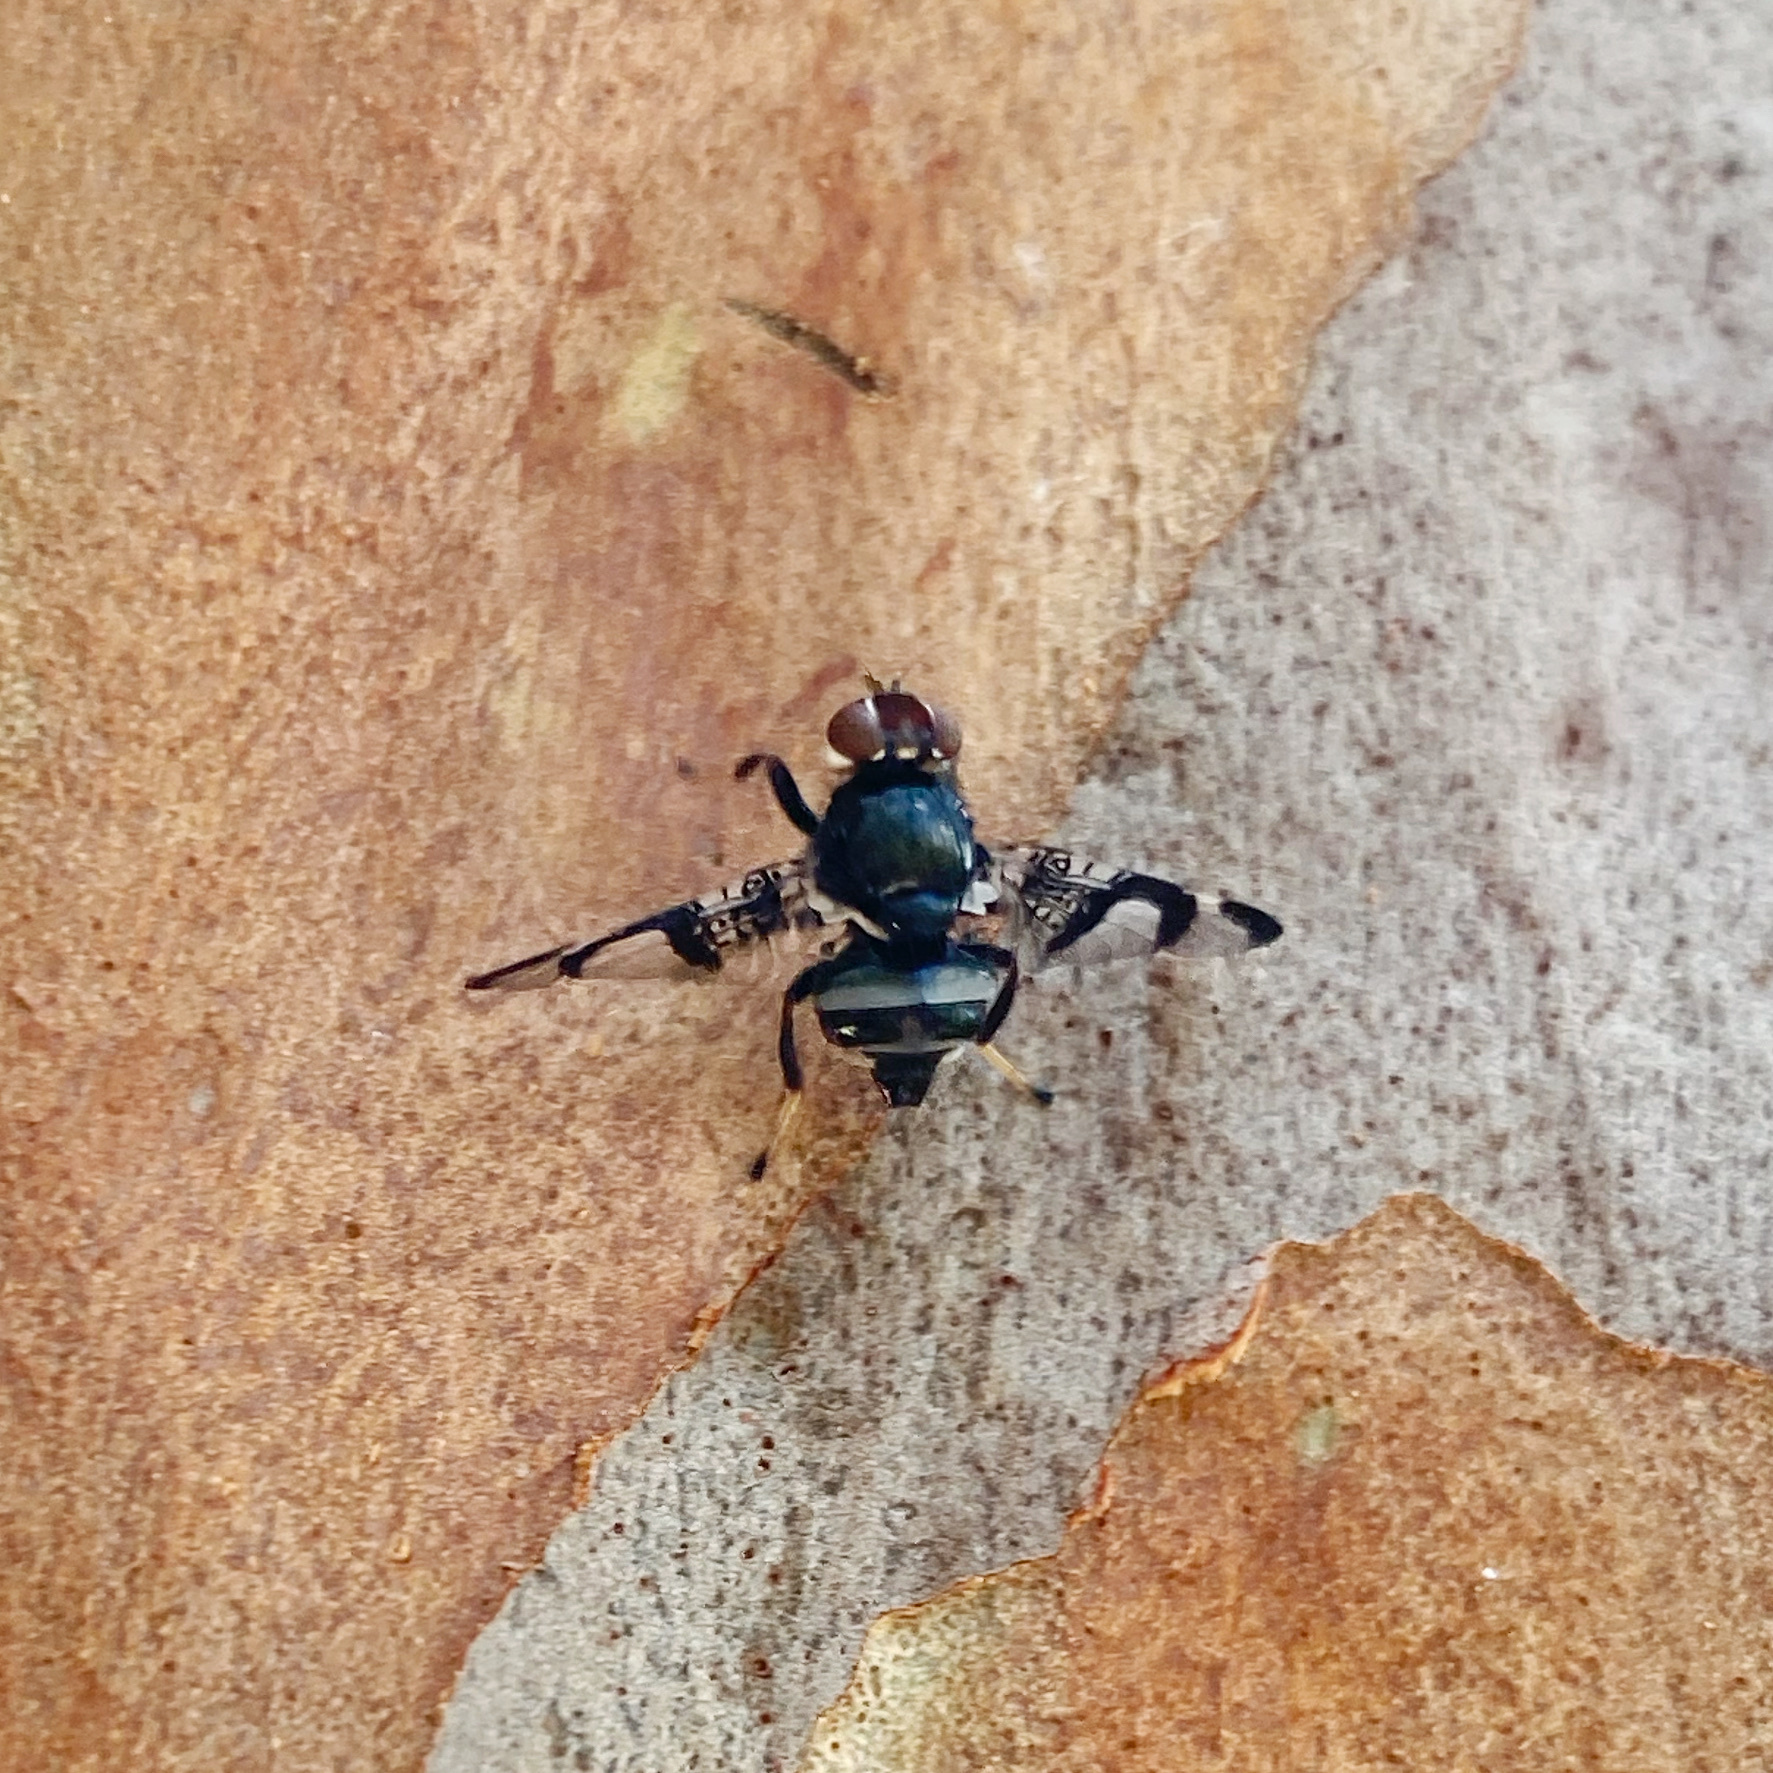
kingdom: Animalia
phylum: Arthropoda
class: Insecta
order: Diptera
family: Platystomatidae
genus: Lenophila
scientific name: Lenophila dentipes
